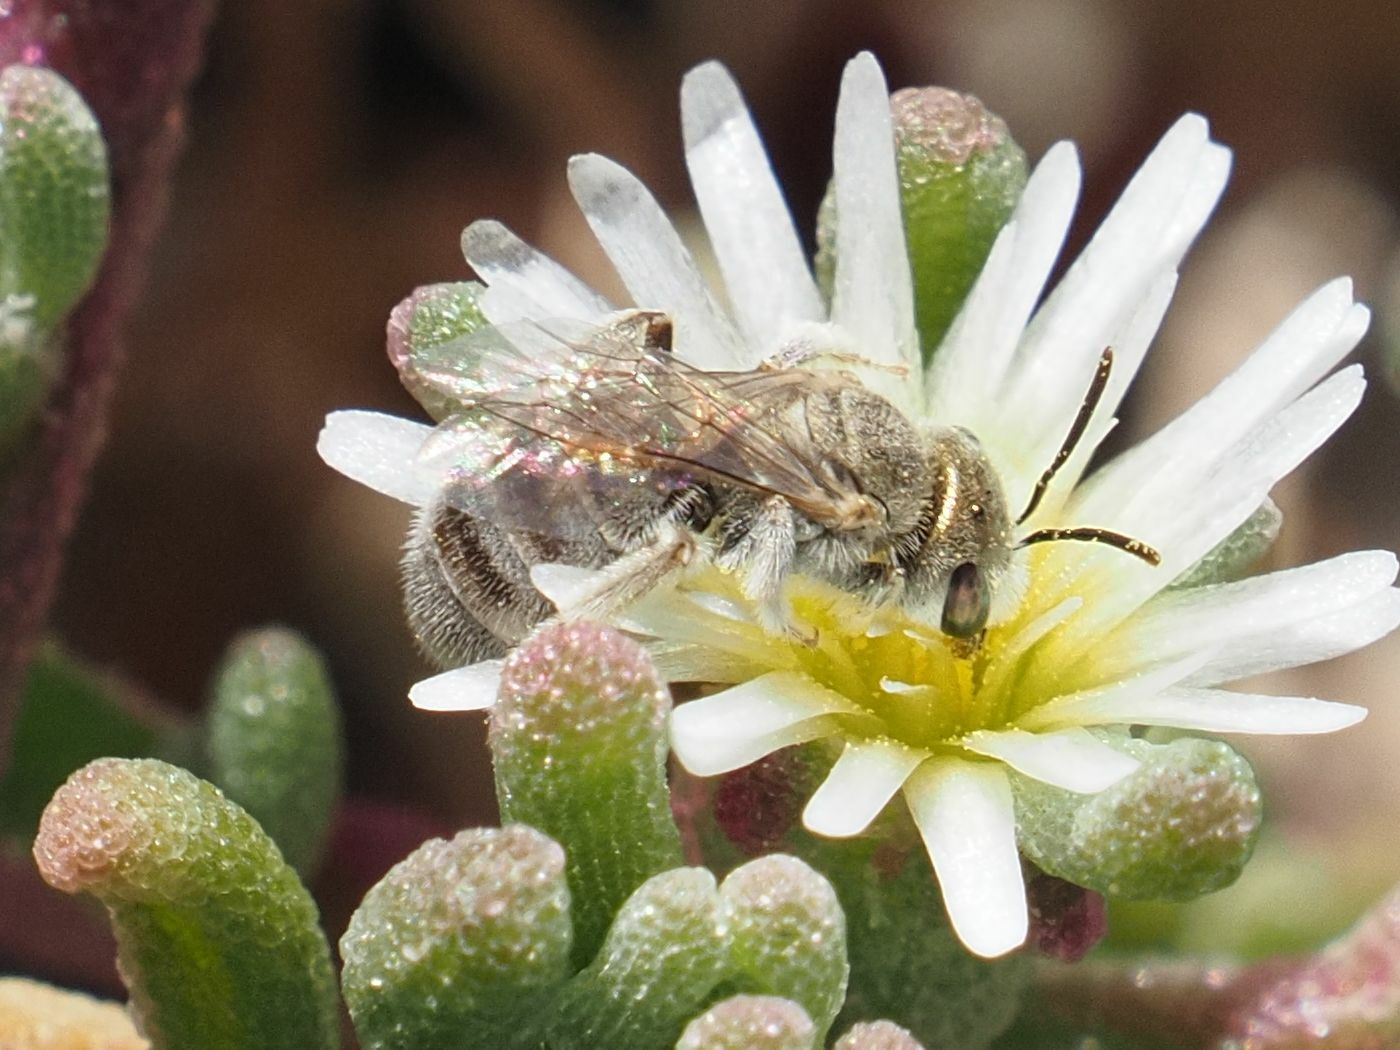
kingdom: Animalia
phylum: Arthropoda
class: Insecta
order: Hymenoptera
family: Halictidae
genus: Halictus
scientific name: Halictus concinnus
